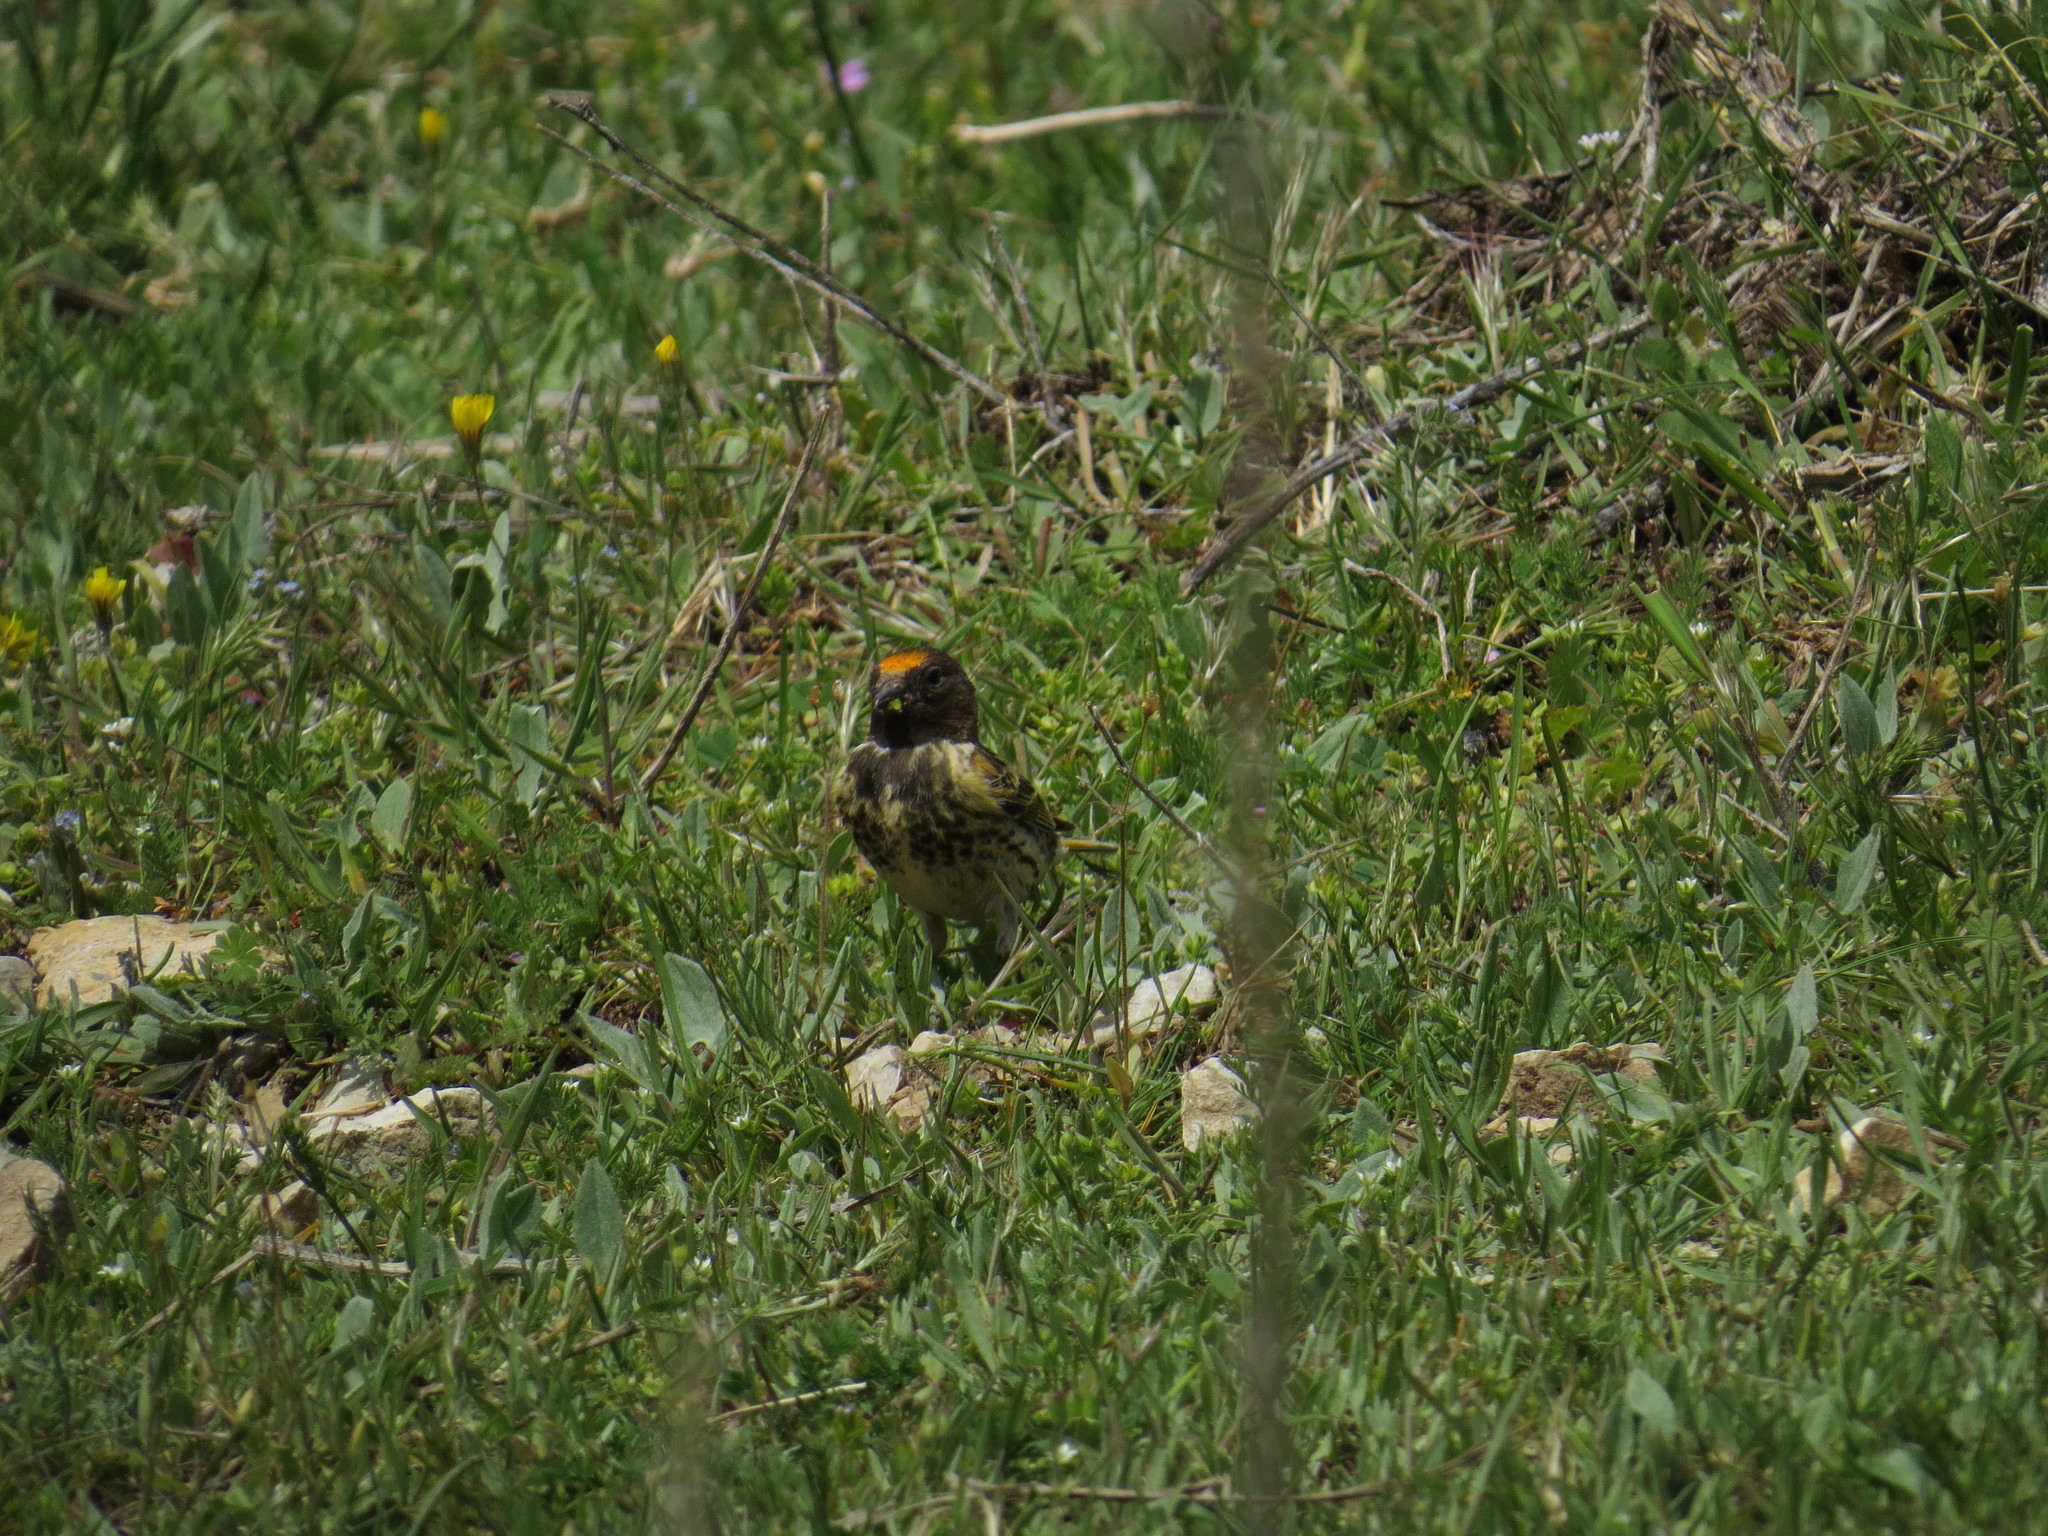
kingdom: Animalia
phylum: Chordata
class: Aves
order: Passeriformes
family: Fringillidae
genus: Serinus
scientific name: Serinus pusillus
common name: Red-fronted serin
